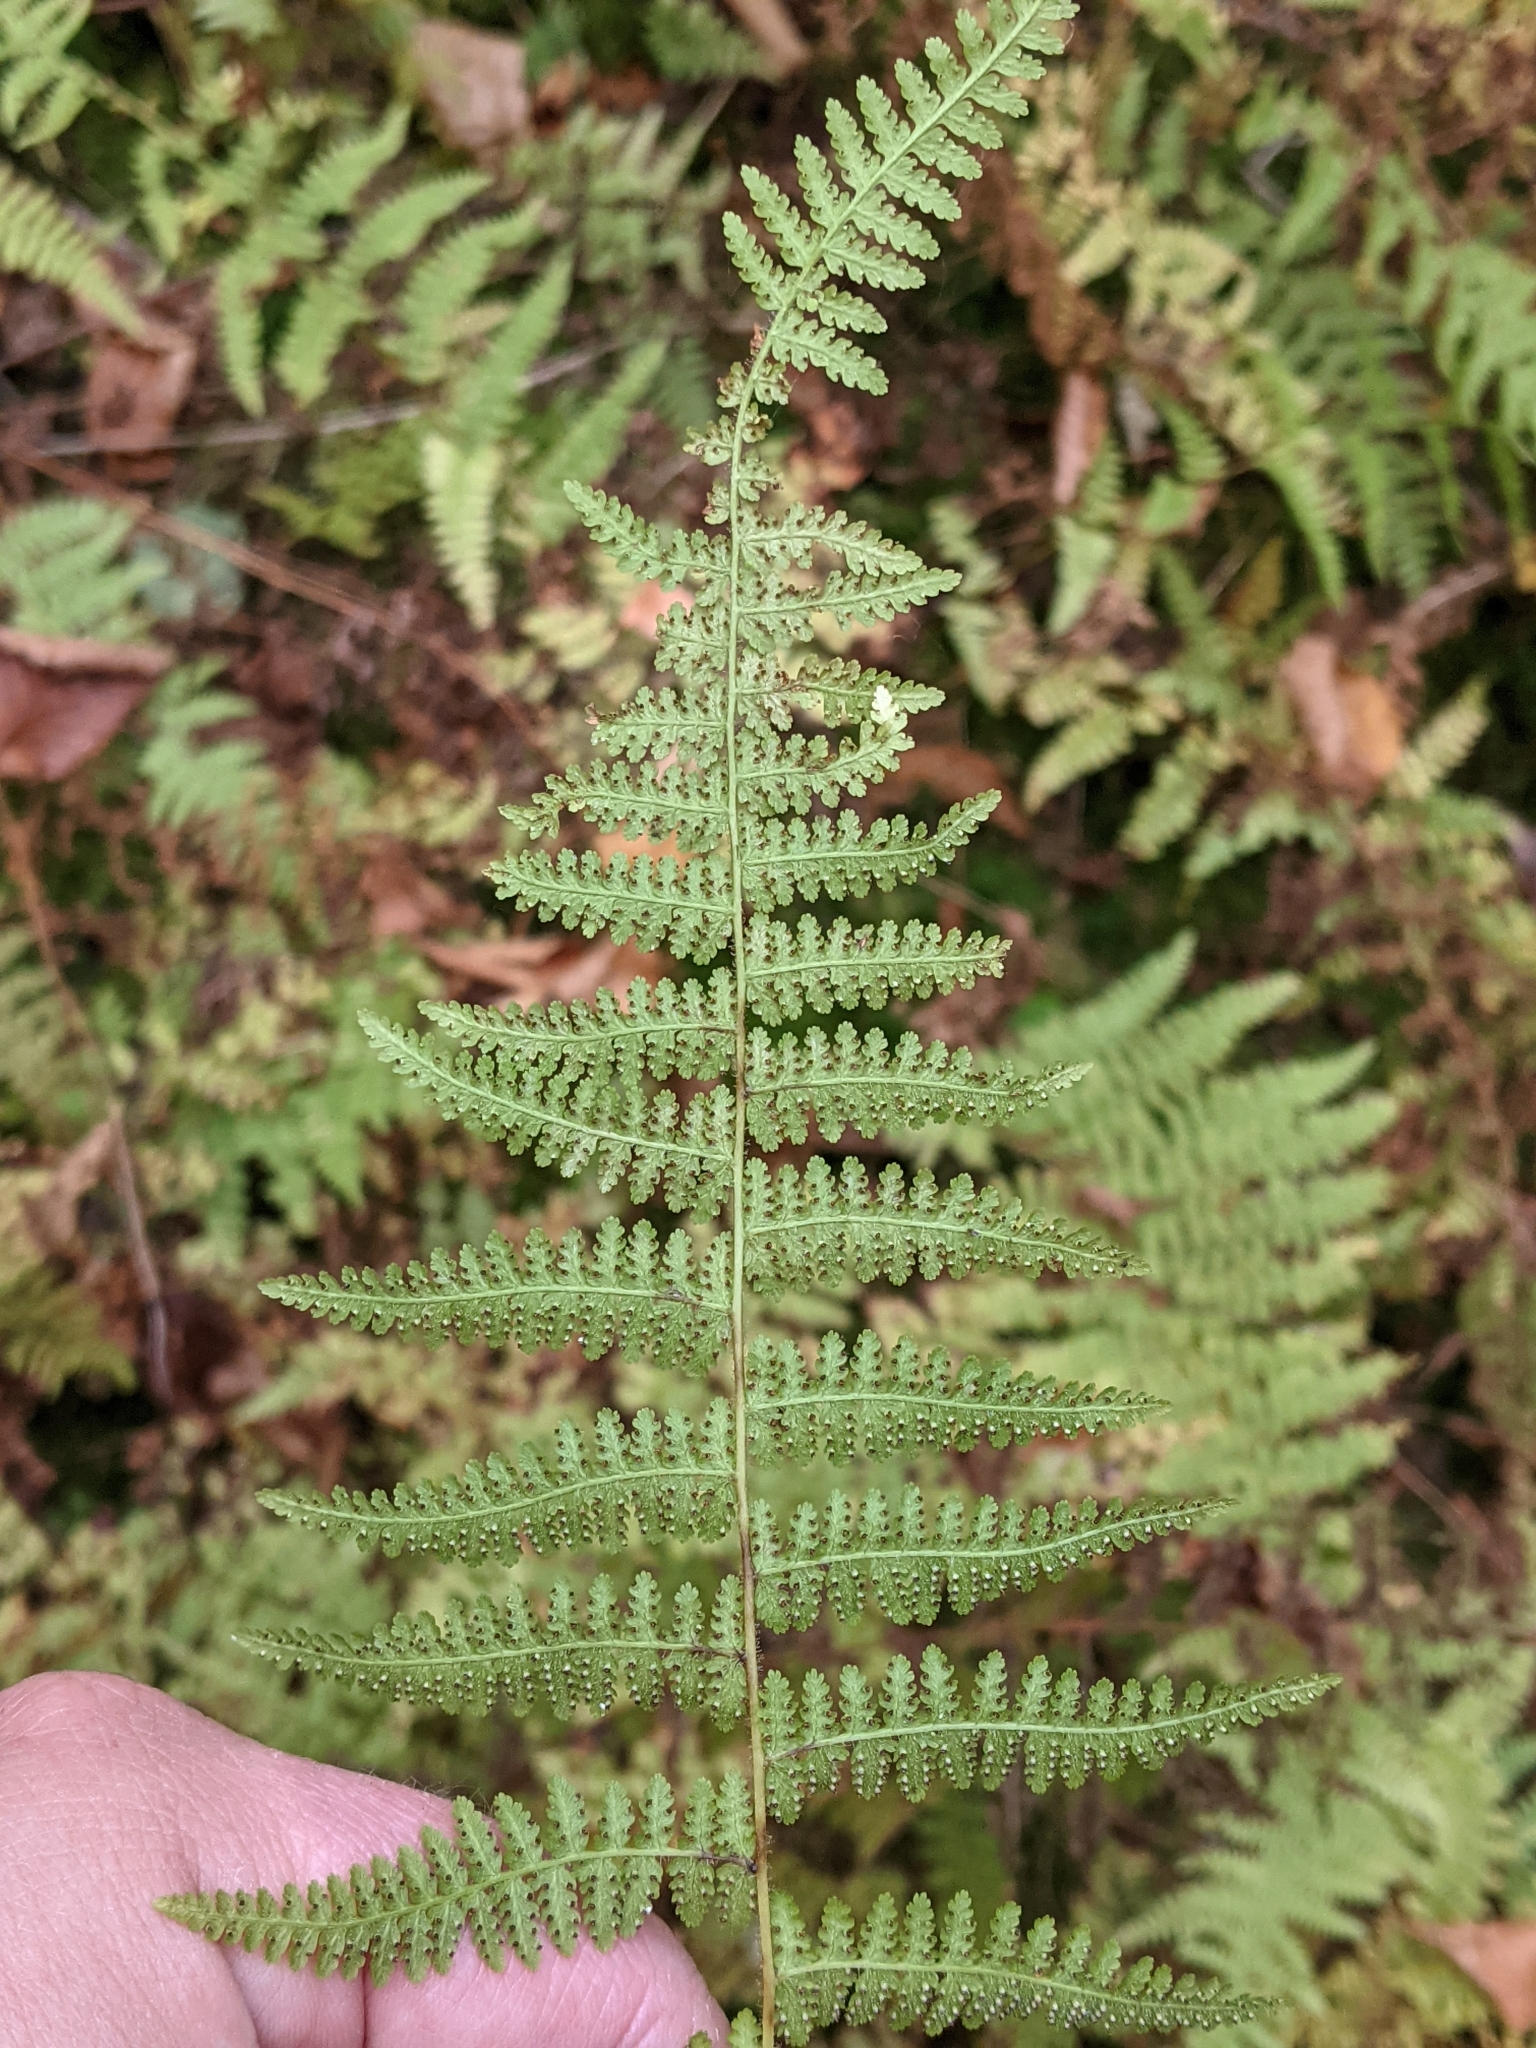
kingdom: Plantae
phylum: Tracheophyta
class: Polypodiopsida
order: Polypodiales
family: Dennstaedtiaceae
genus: Sitobolium
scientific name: Sitobolium punctilobum
